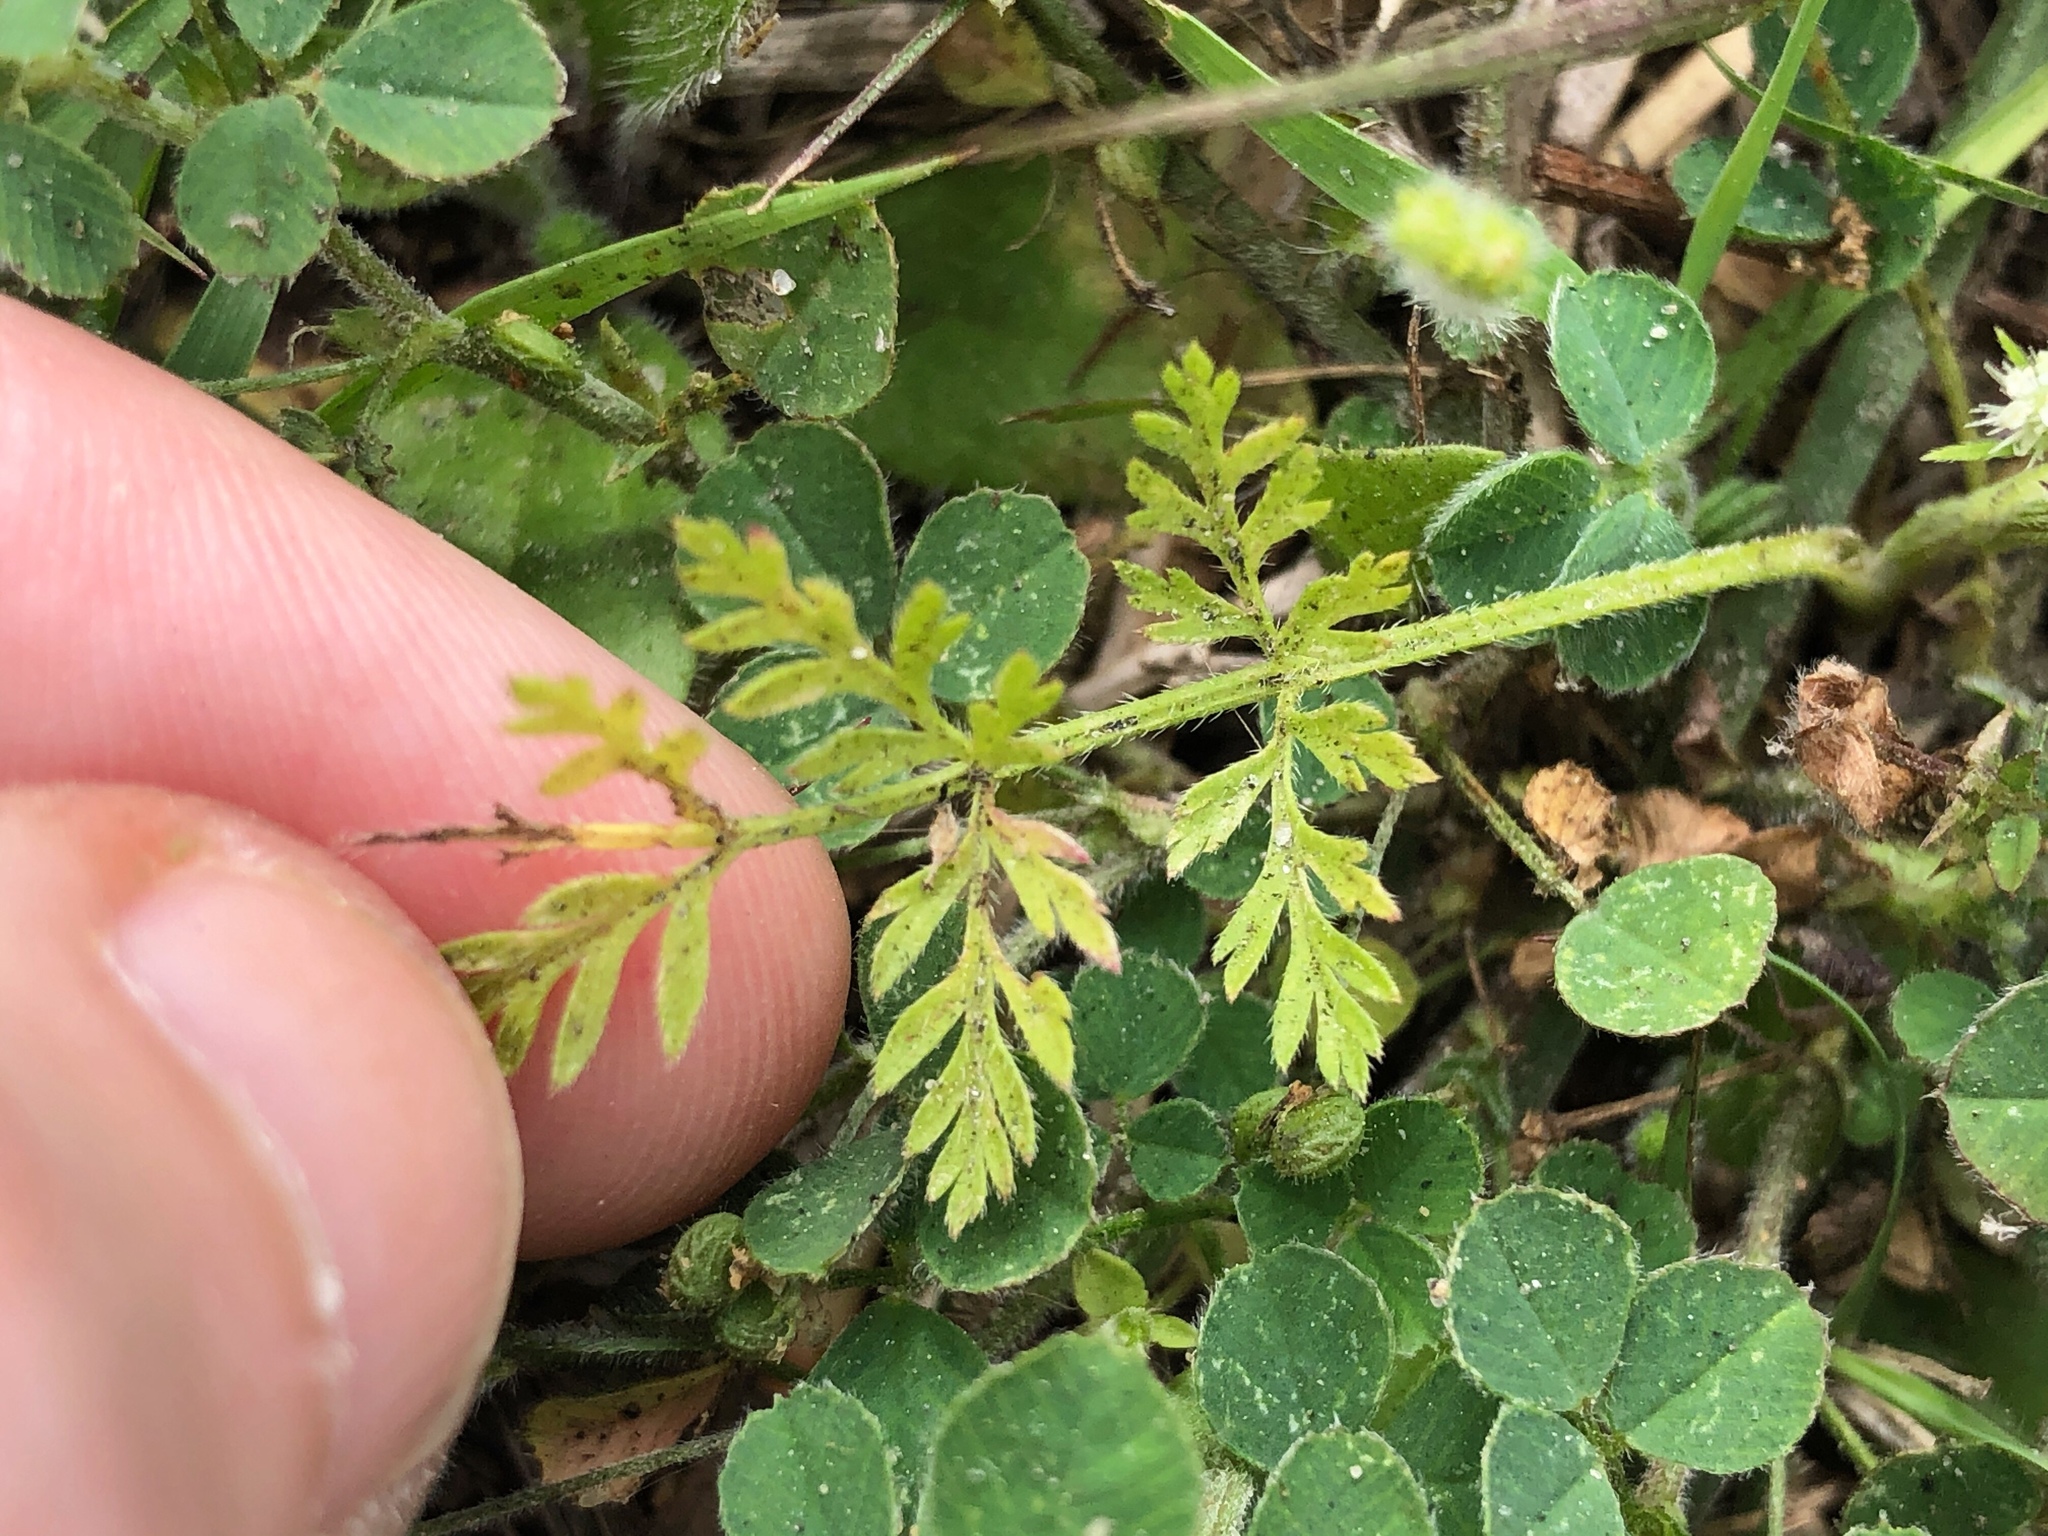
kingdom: Plantae
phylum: Tracheophyta
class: Magnoliopsida
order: Apiales
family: Apiaceae
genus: Torilis
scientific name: Torilis nodosa
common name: Knotted hedge-parsley
